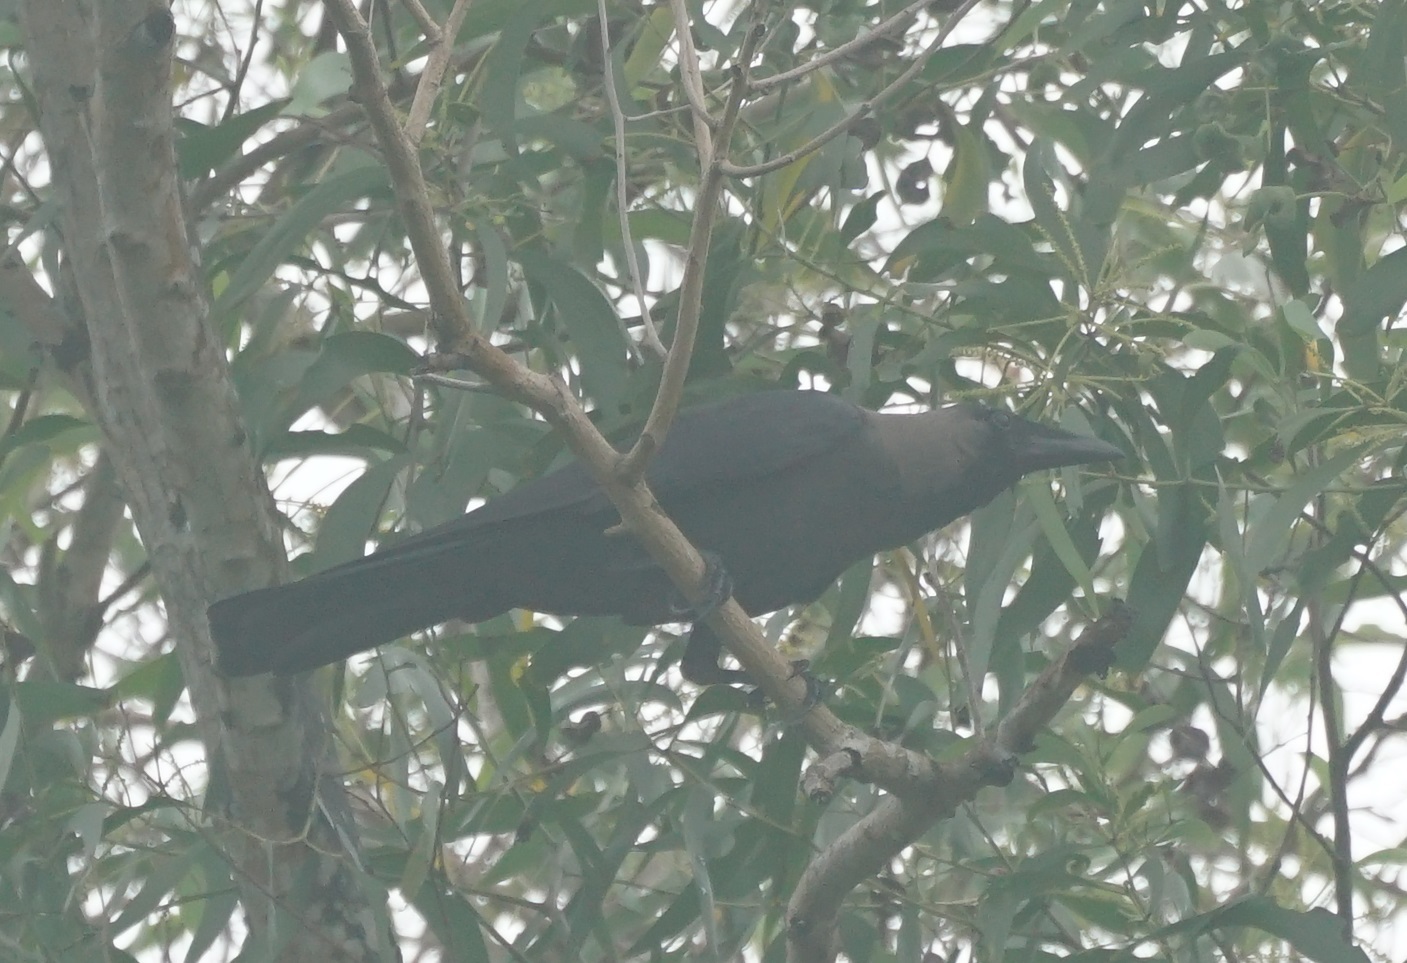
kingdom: Animalia
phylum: Chordata
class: Aves
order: Passeriformes
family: Corvidae
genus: Corvus
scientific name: Corvus splendens
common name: House crow
